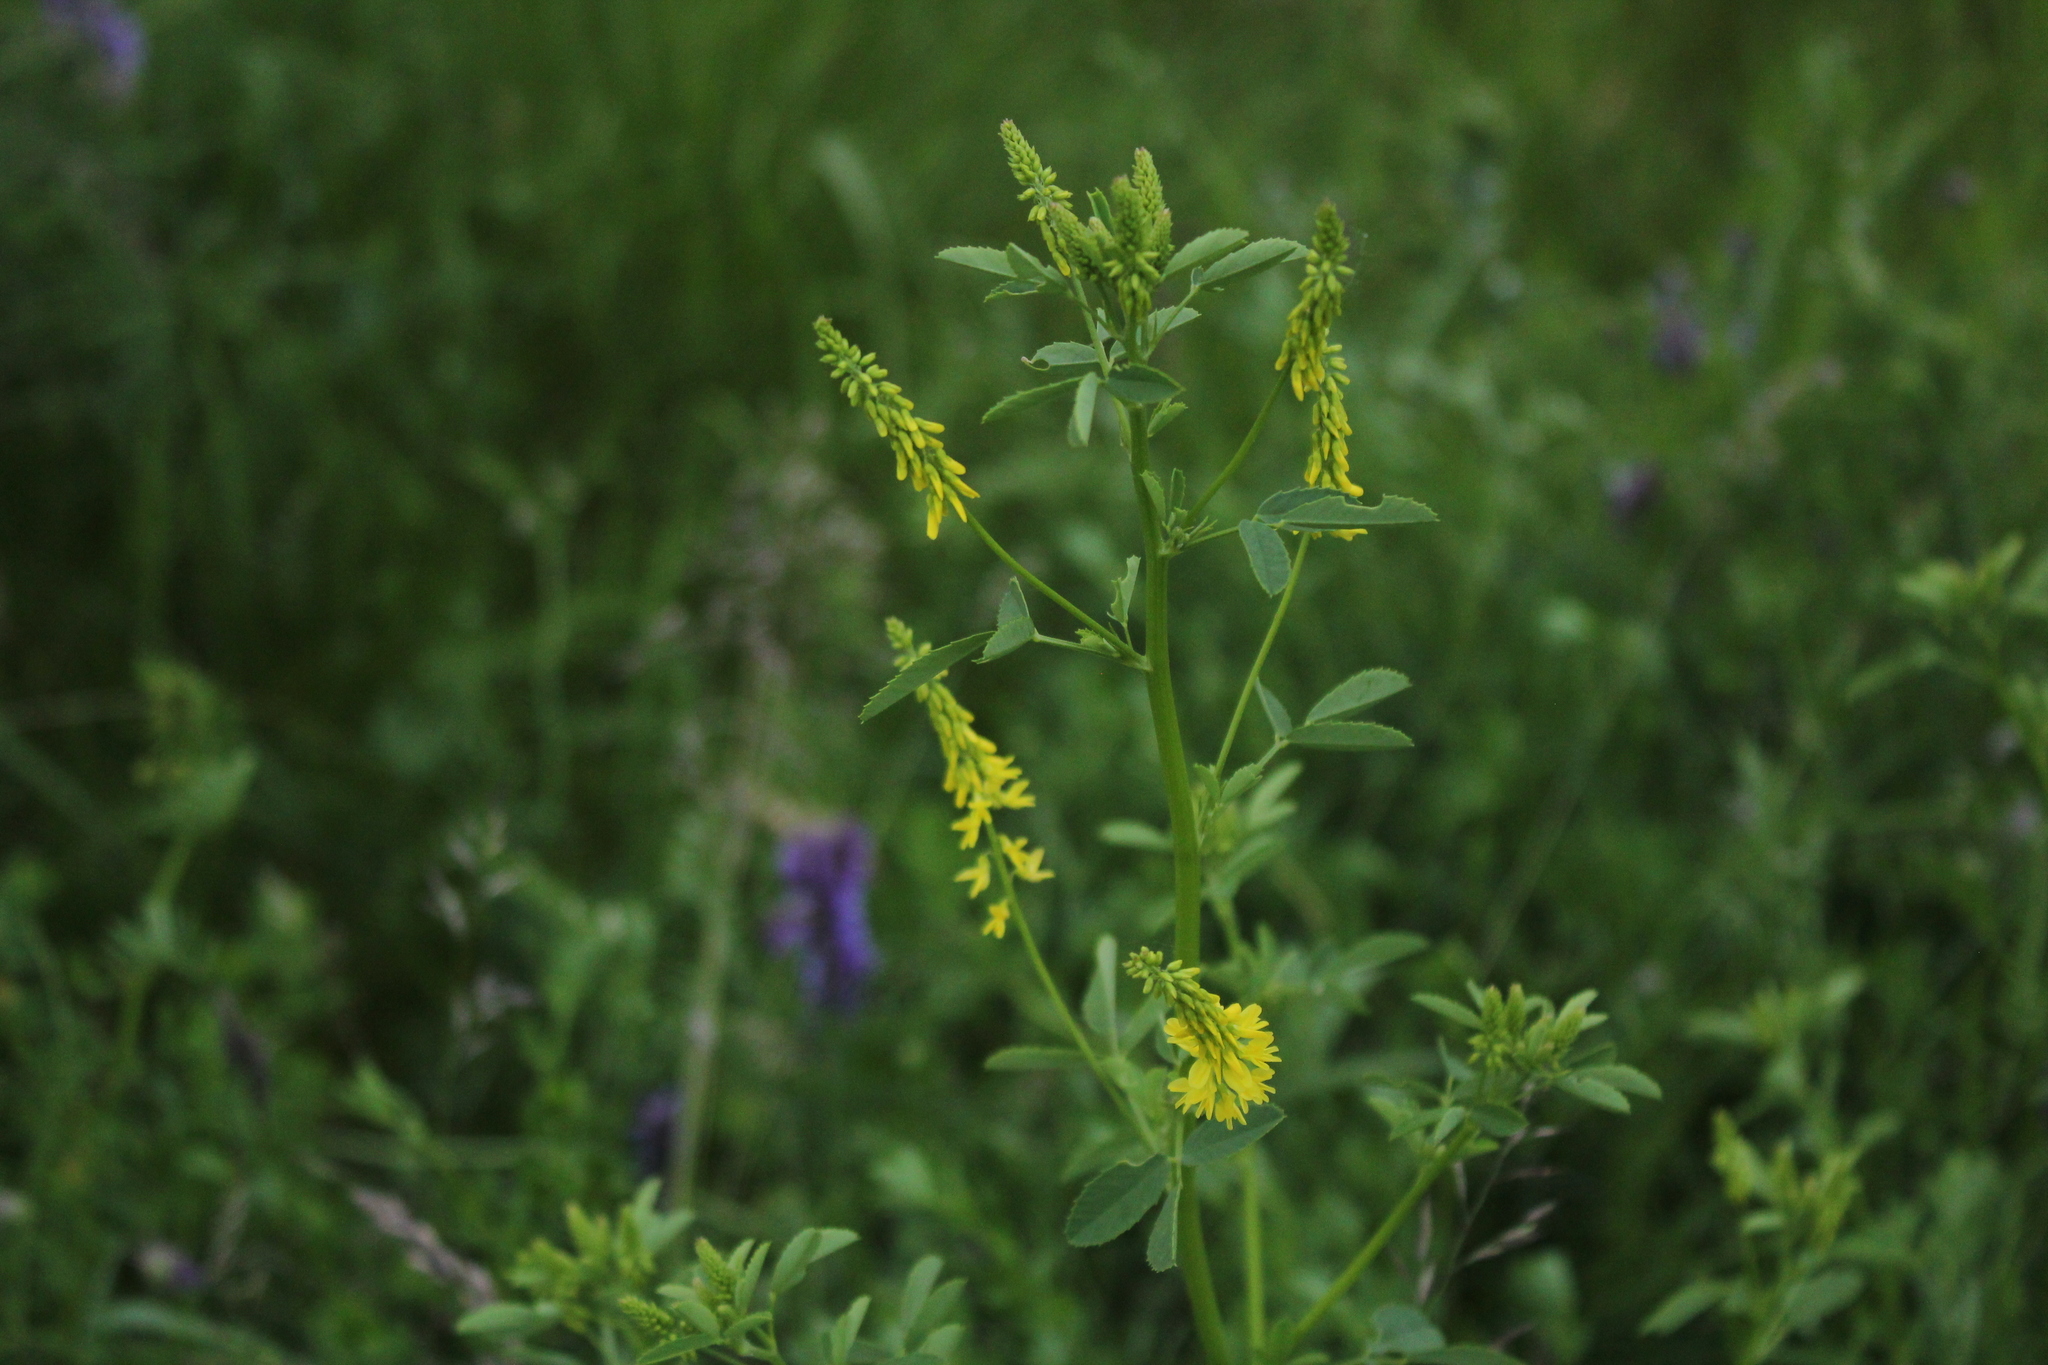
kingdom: Plantae
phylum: Tracheophyta
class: Magnoliopsida
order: Fabales
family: Fabaceae
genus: Melilotus
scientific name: Melilotus officinalis
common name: Sweetclover
